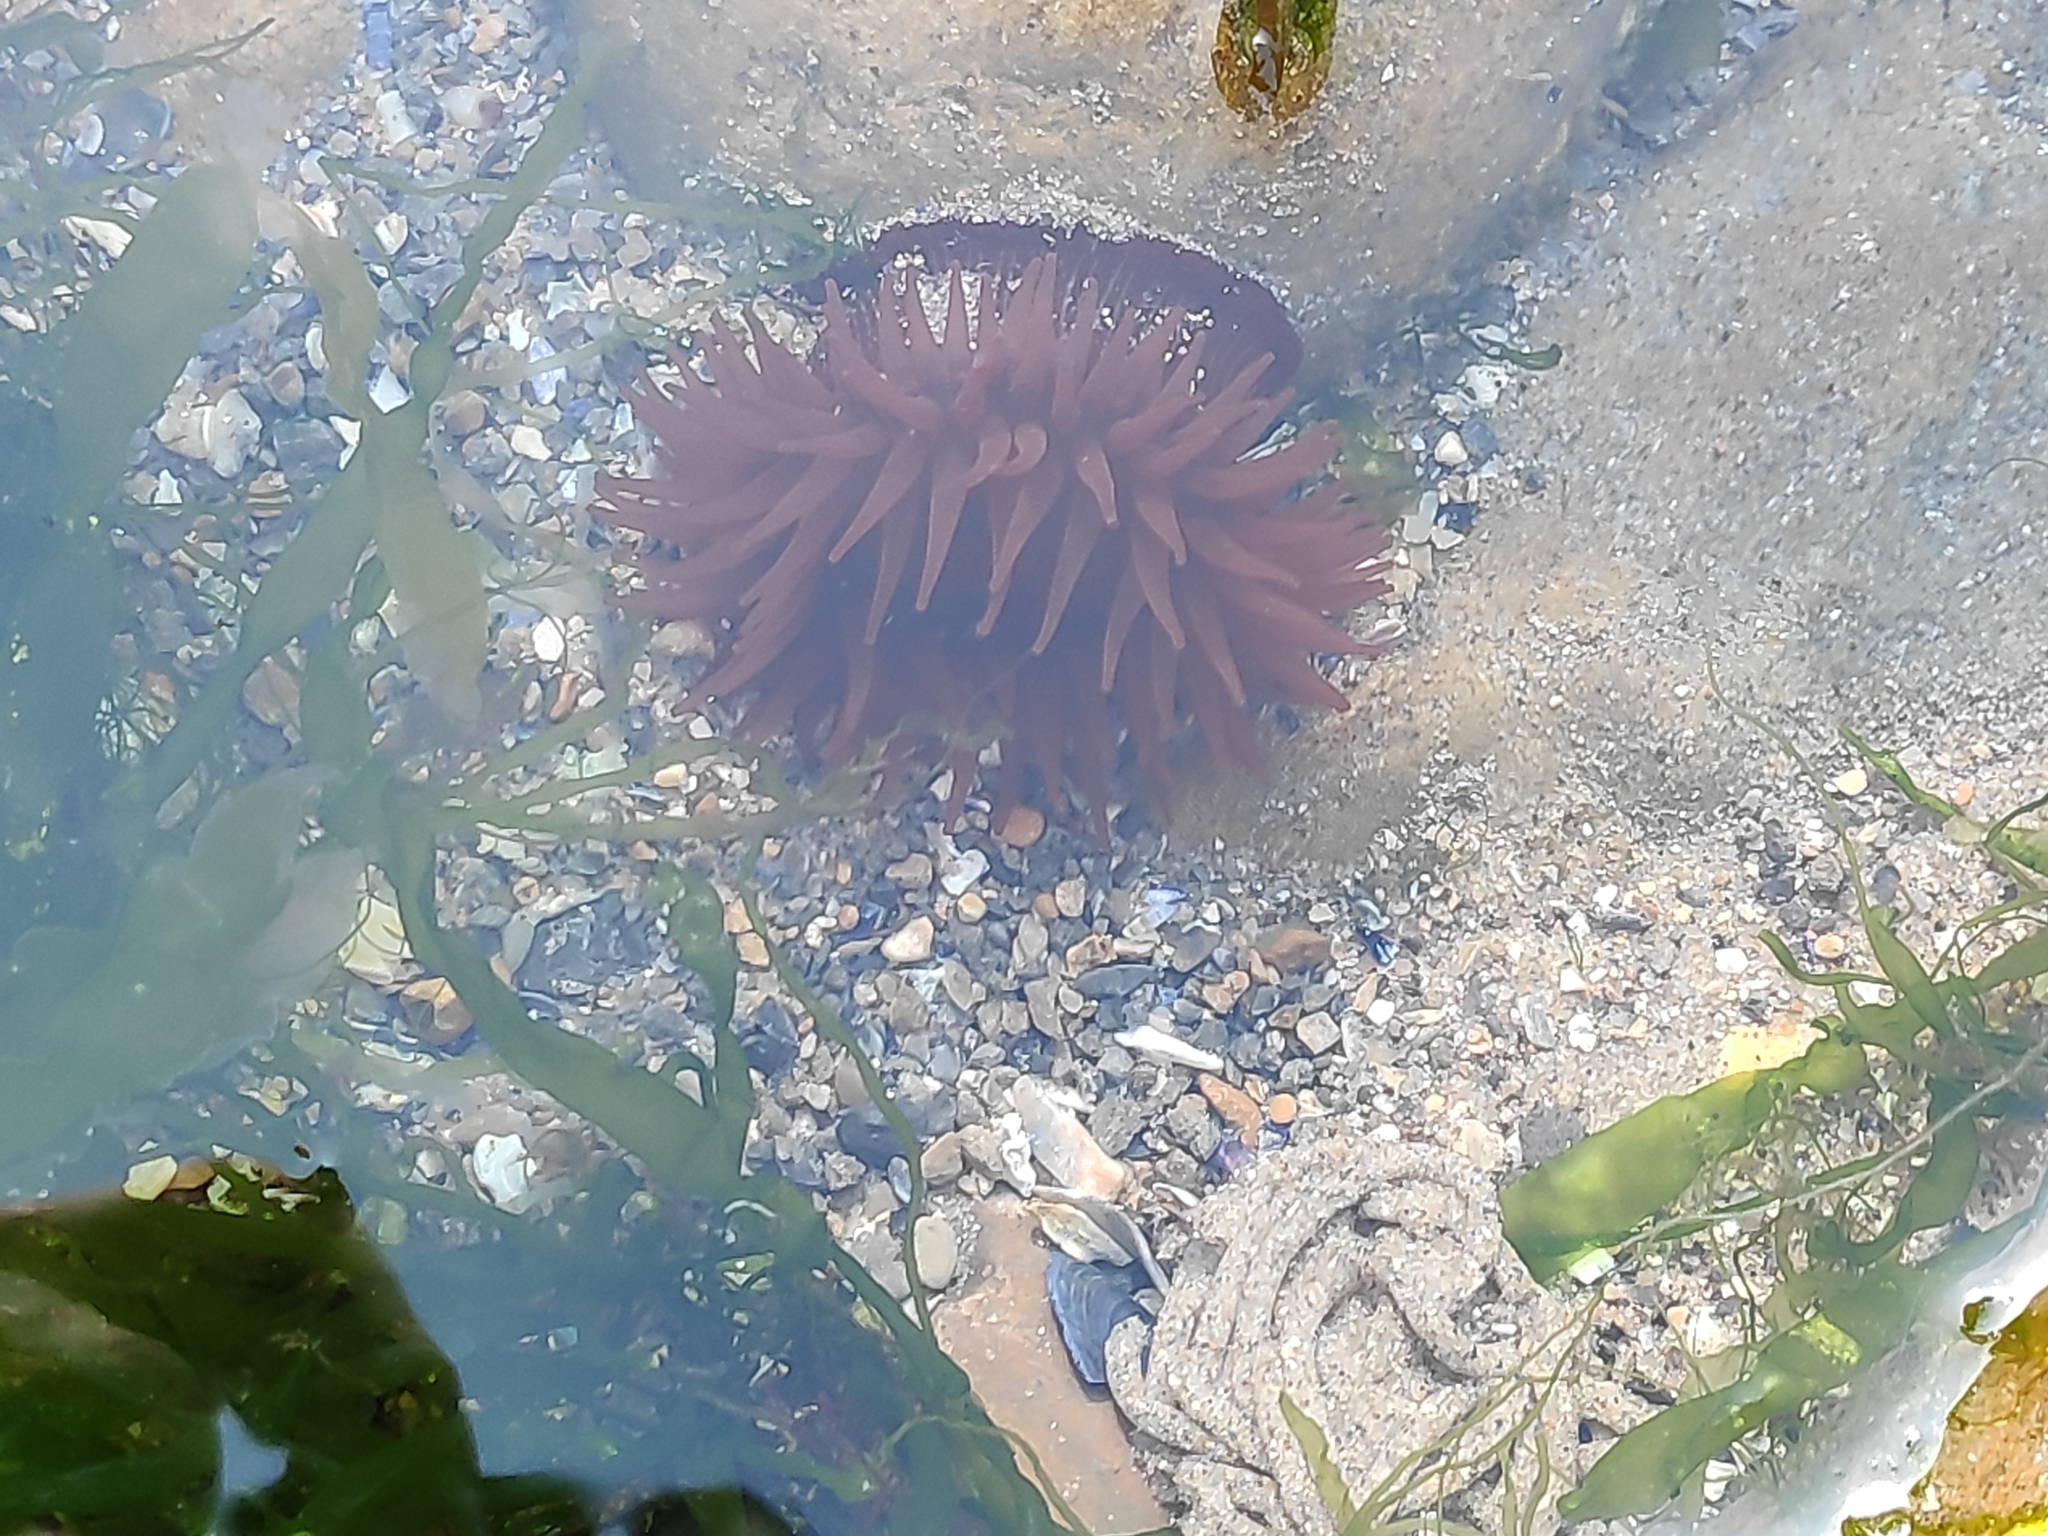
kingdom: Animalia
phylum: Cnidaria
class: Anthozoa
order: Actiniaria
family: Actiniidae
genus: Actinia
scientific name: Actinia equina
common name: Beadlet anemone
